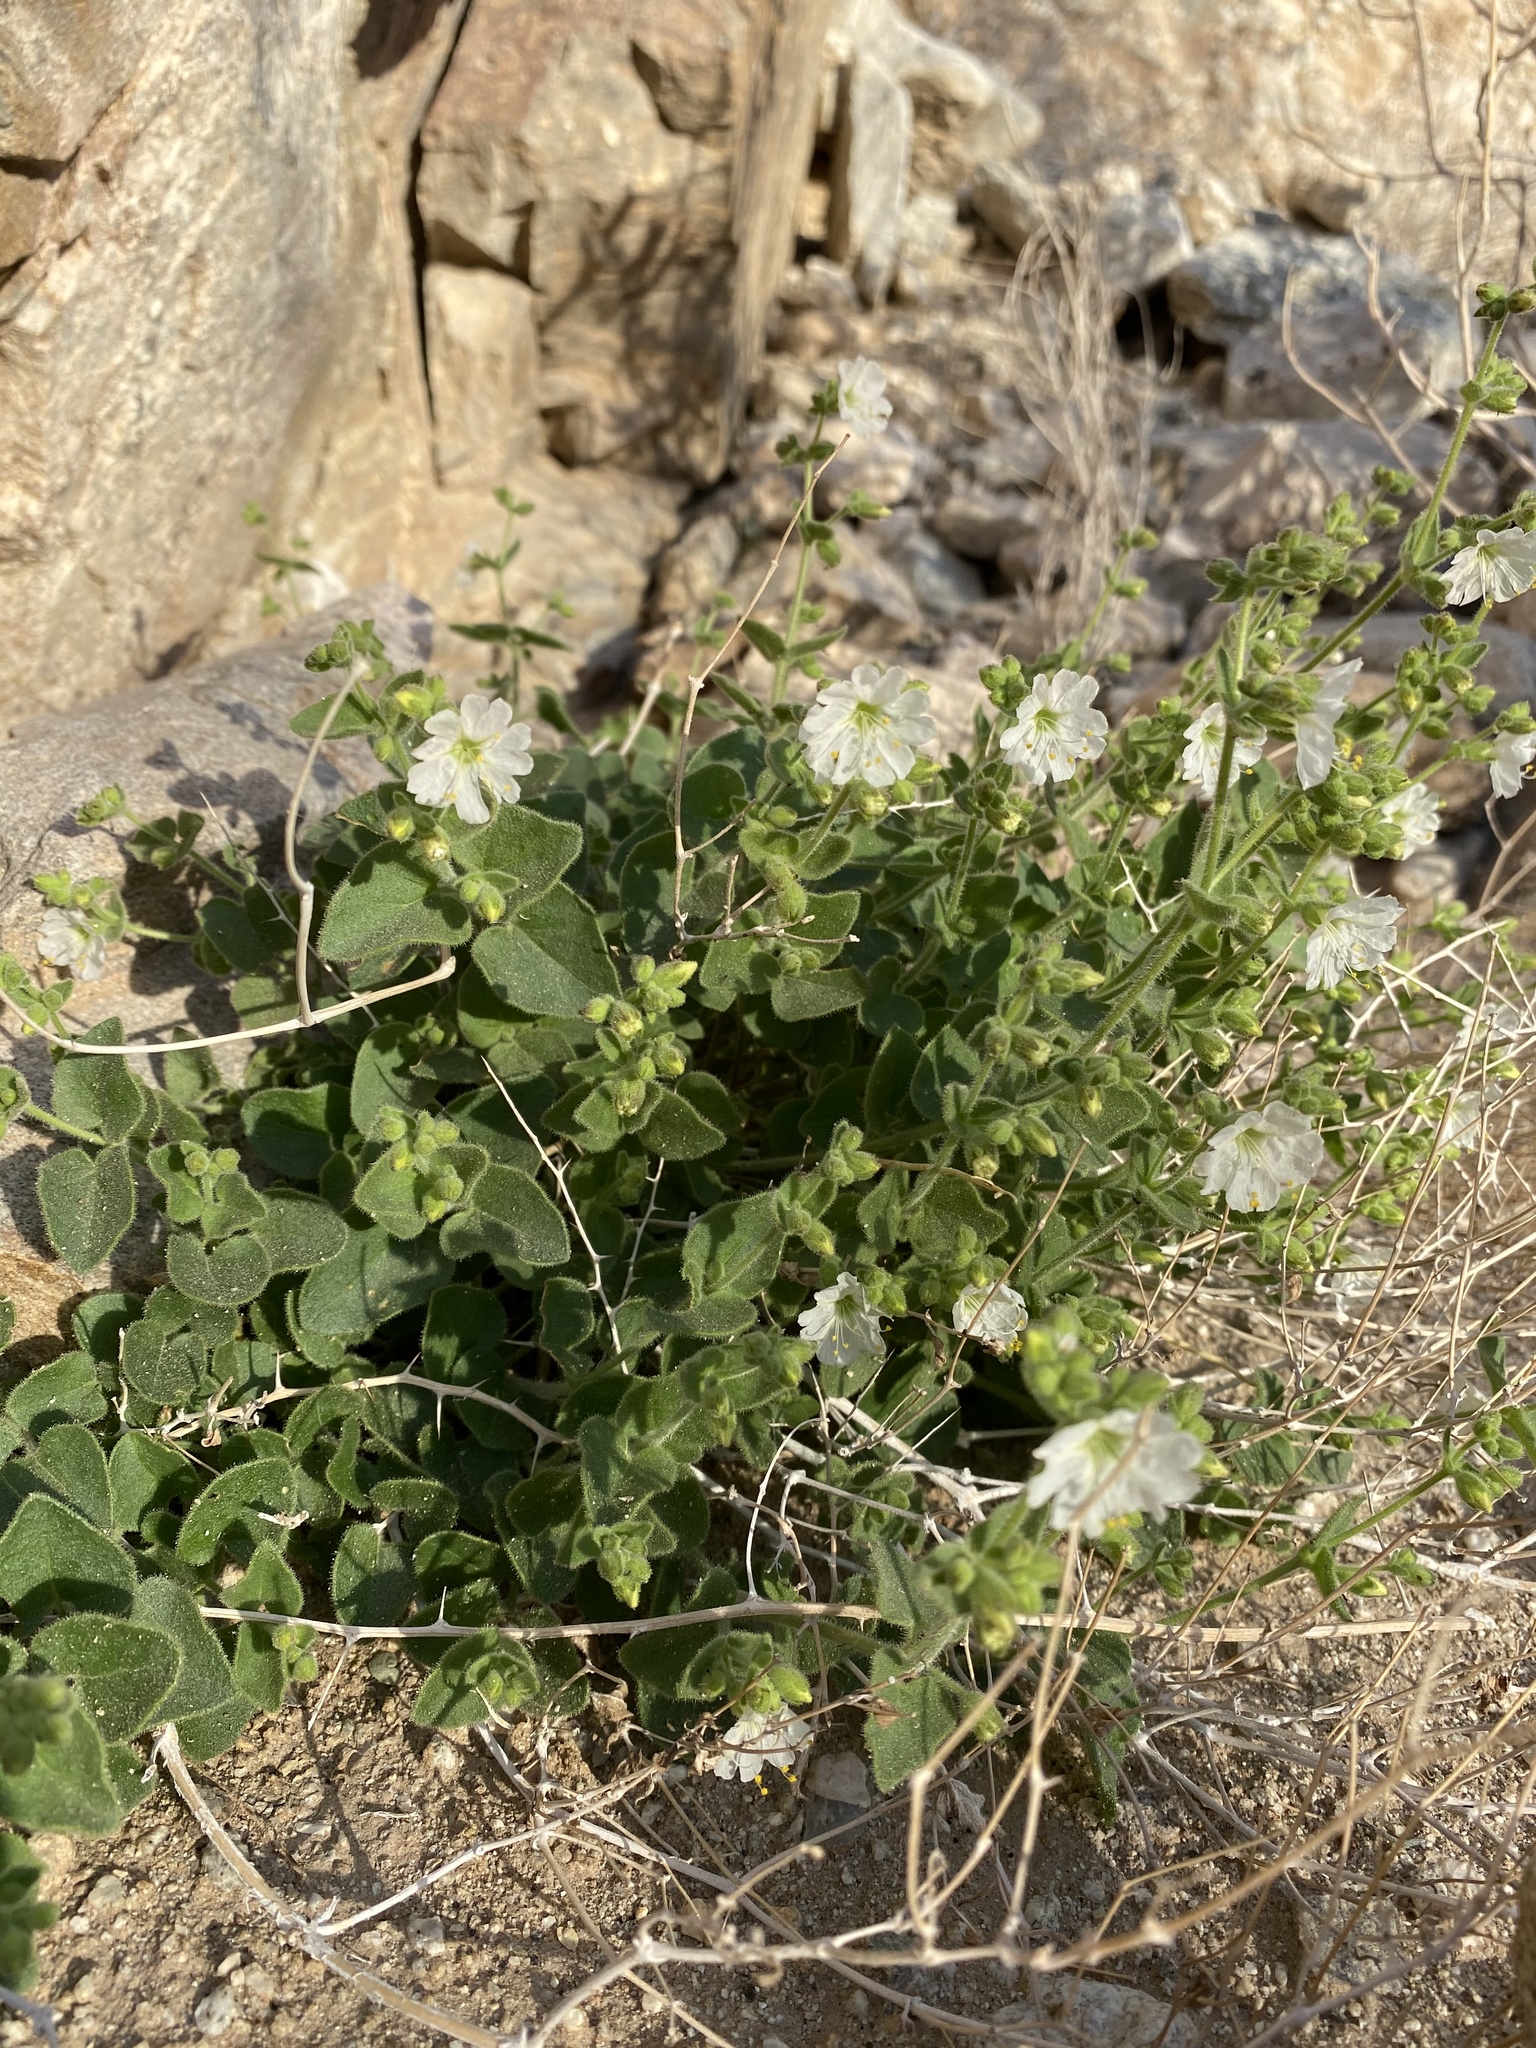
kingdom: Plantae
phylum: Tracheophyta
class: Magnoliopsida
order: Caryophyllales
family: Nyctaginaceae
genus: Mirabilis
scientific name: Mirabilis laevis
